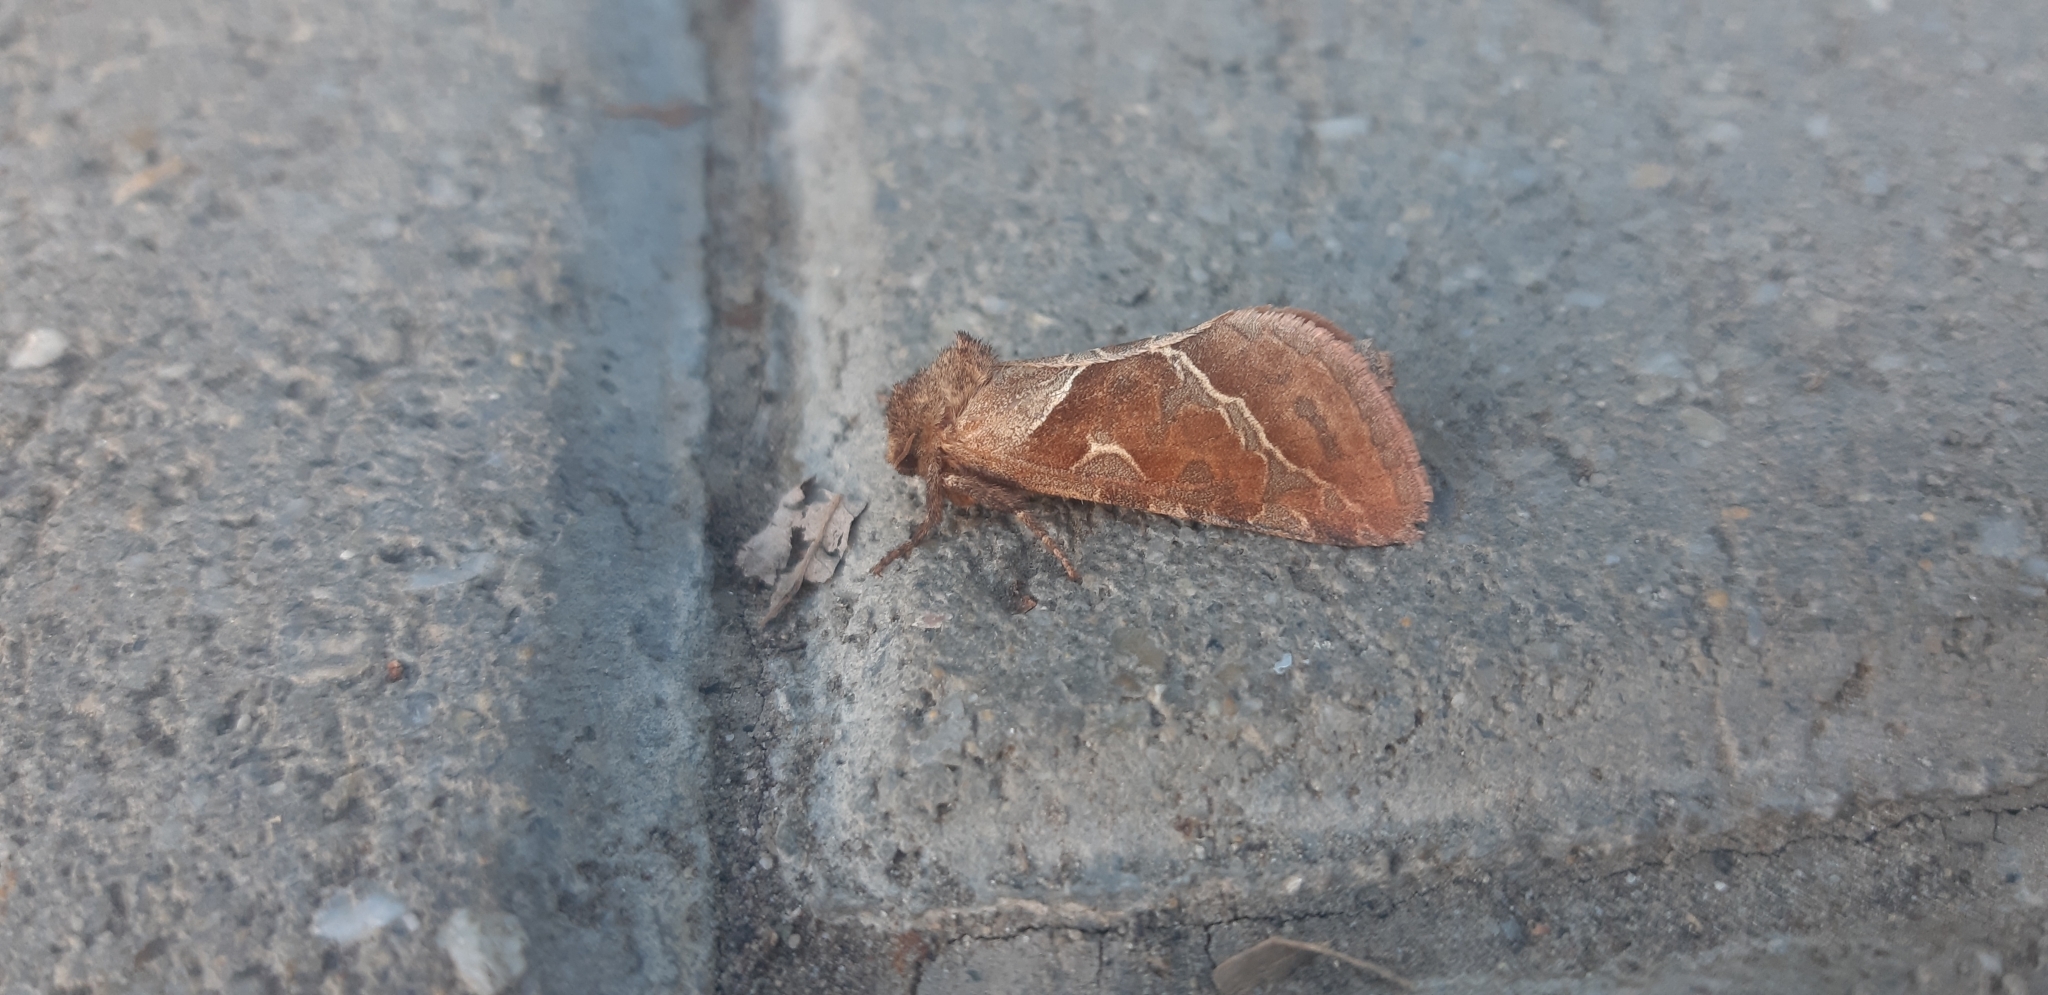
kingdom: Animalia
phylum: Arthropoda
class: Insecta
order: Lepidoptera
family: Hepialidae
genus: Triodia
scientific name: Triodia sylvina
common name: Orange swift
